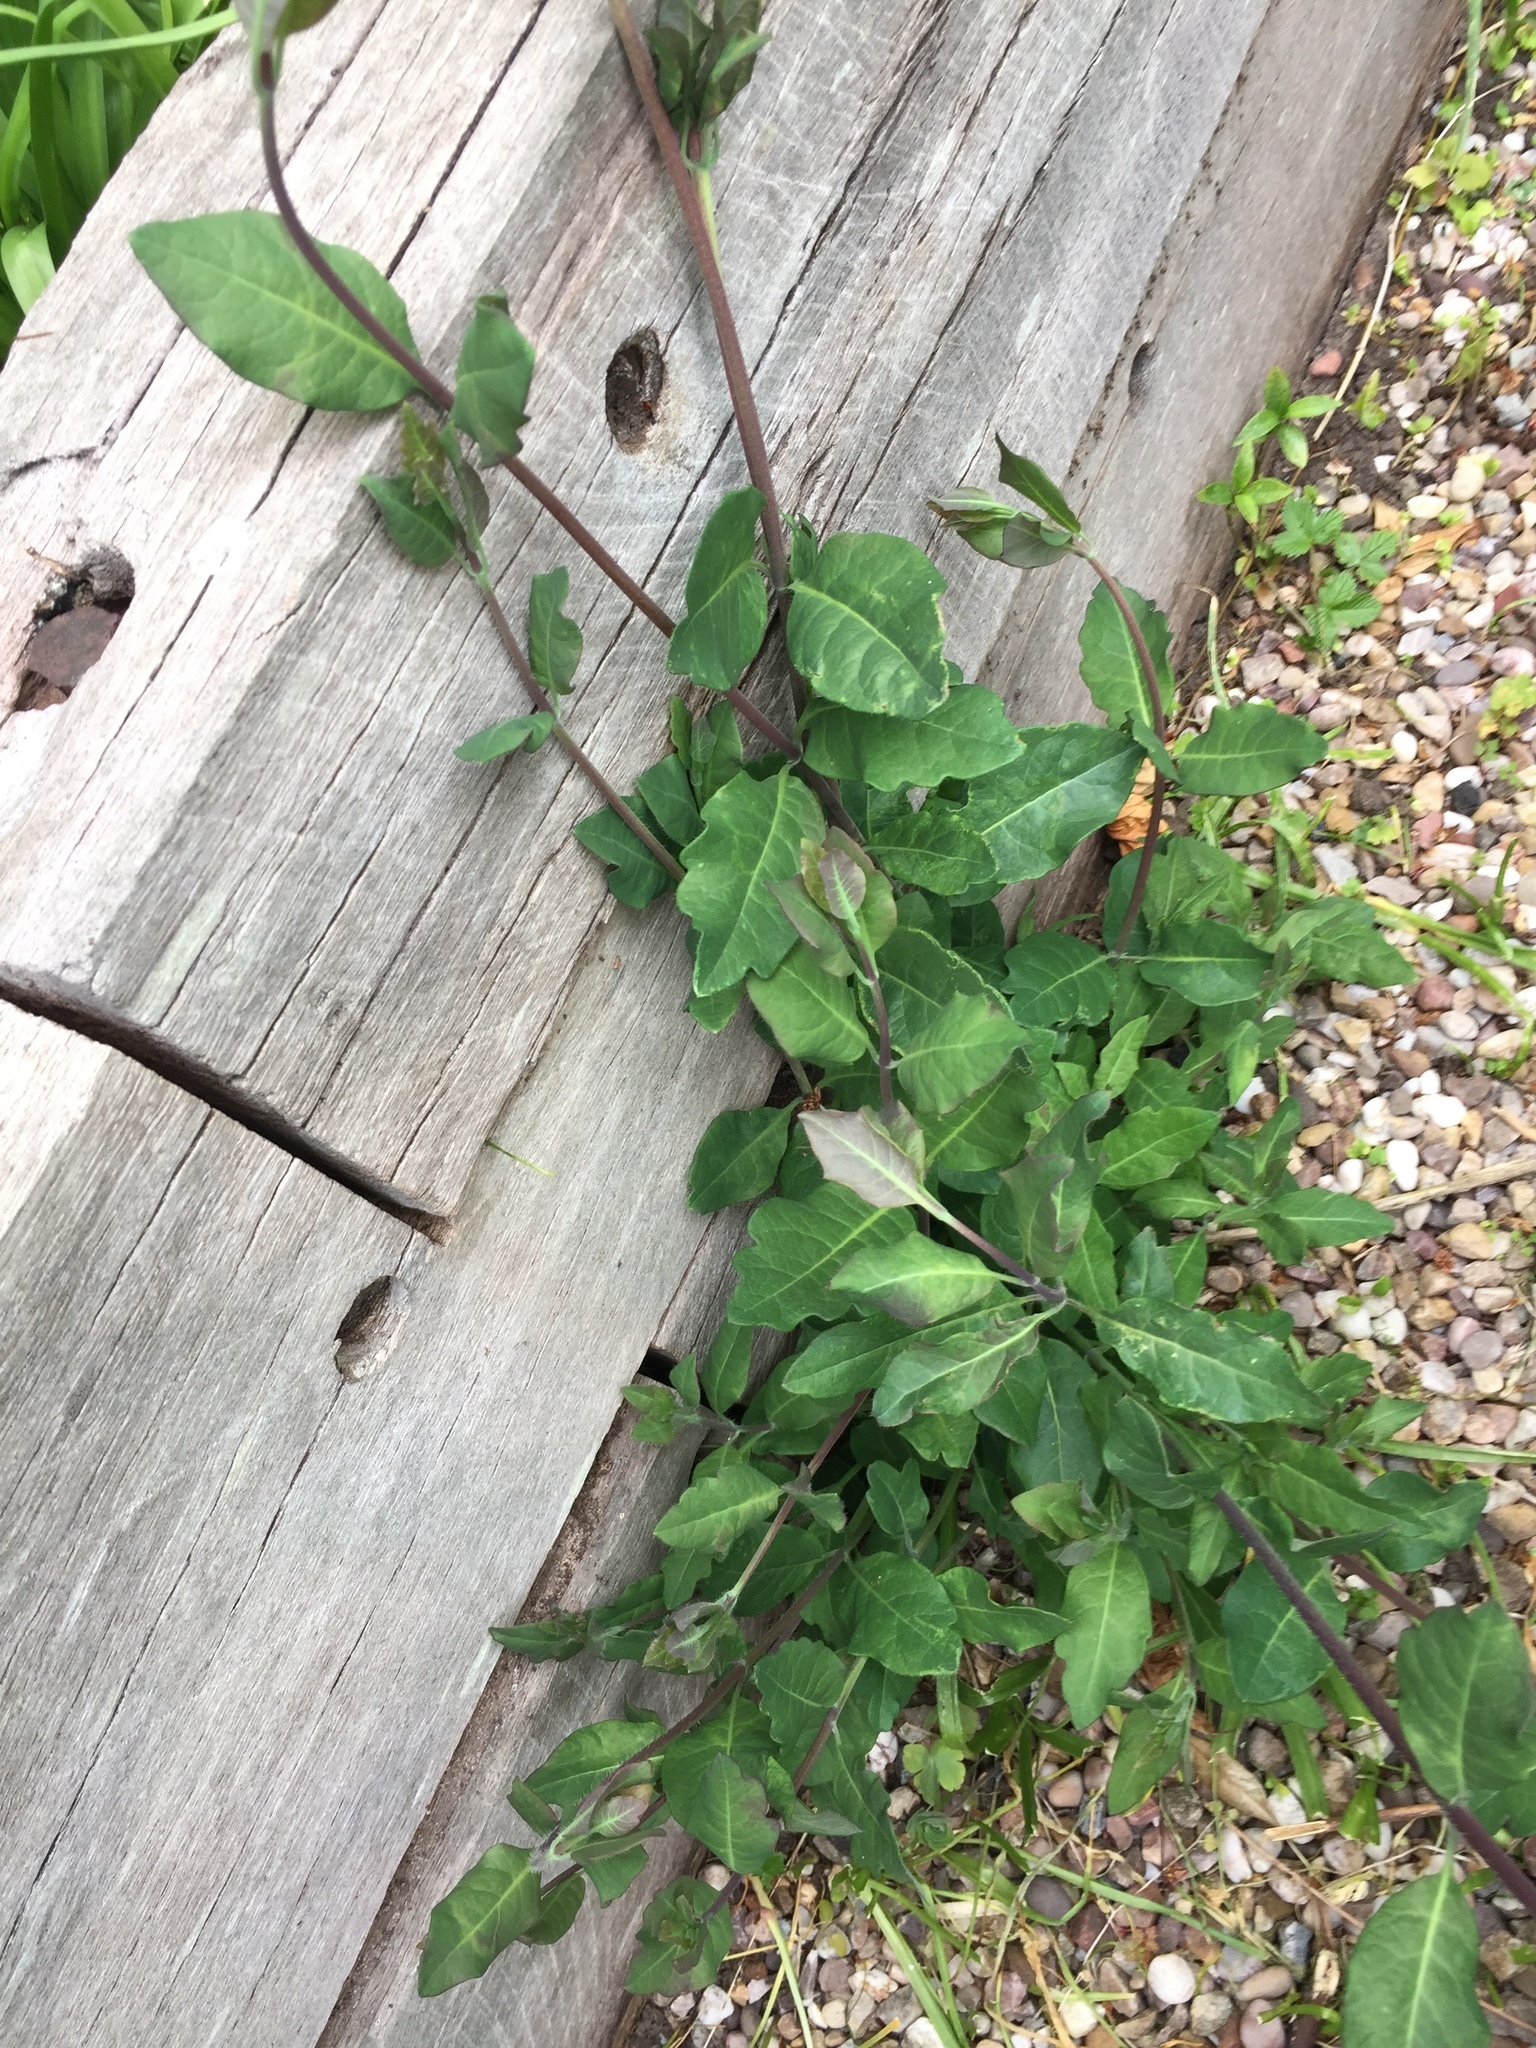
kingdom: Plantae
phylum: Tracheophyta
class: Magnoliopsida
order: Dipsacales
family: Caprifoliaceae
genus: Lonicera
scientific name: Lonicera periclymenum
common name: European honeysuckle
